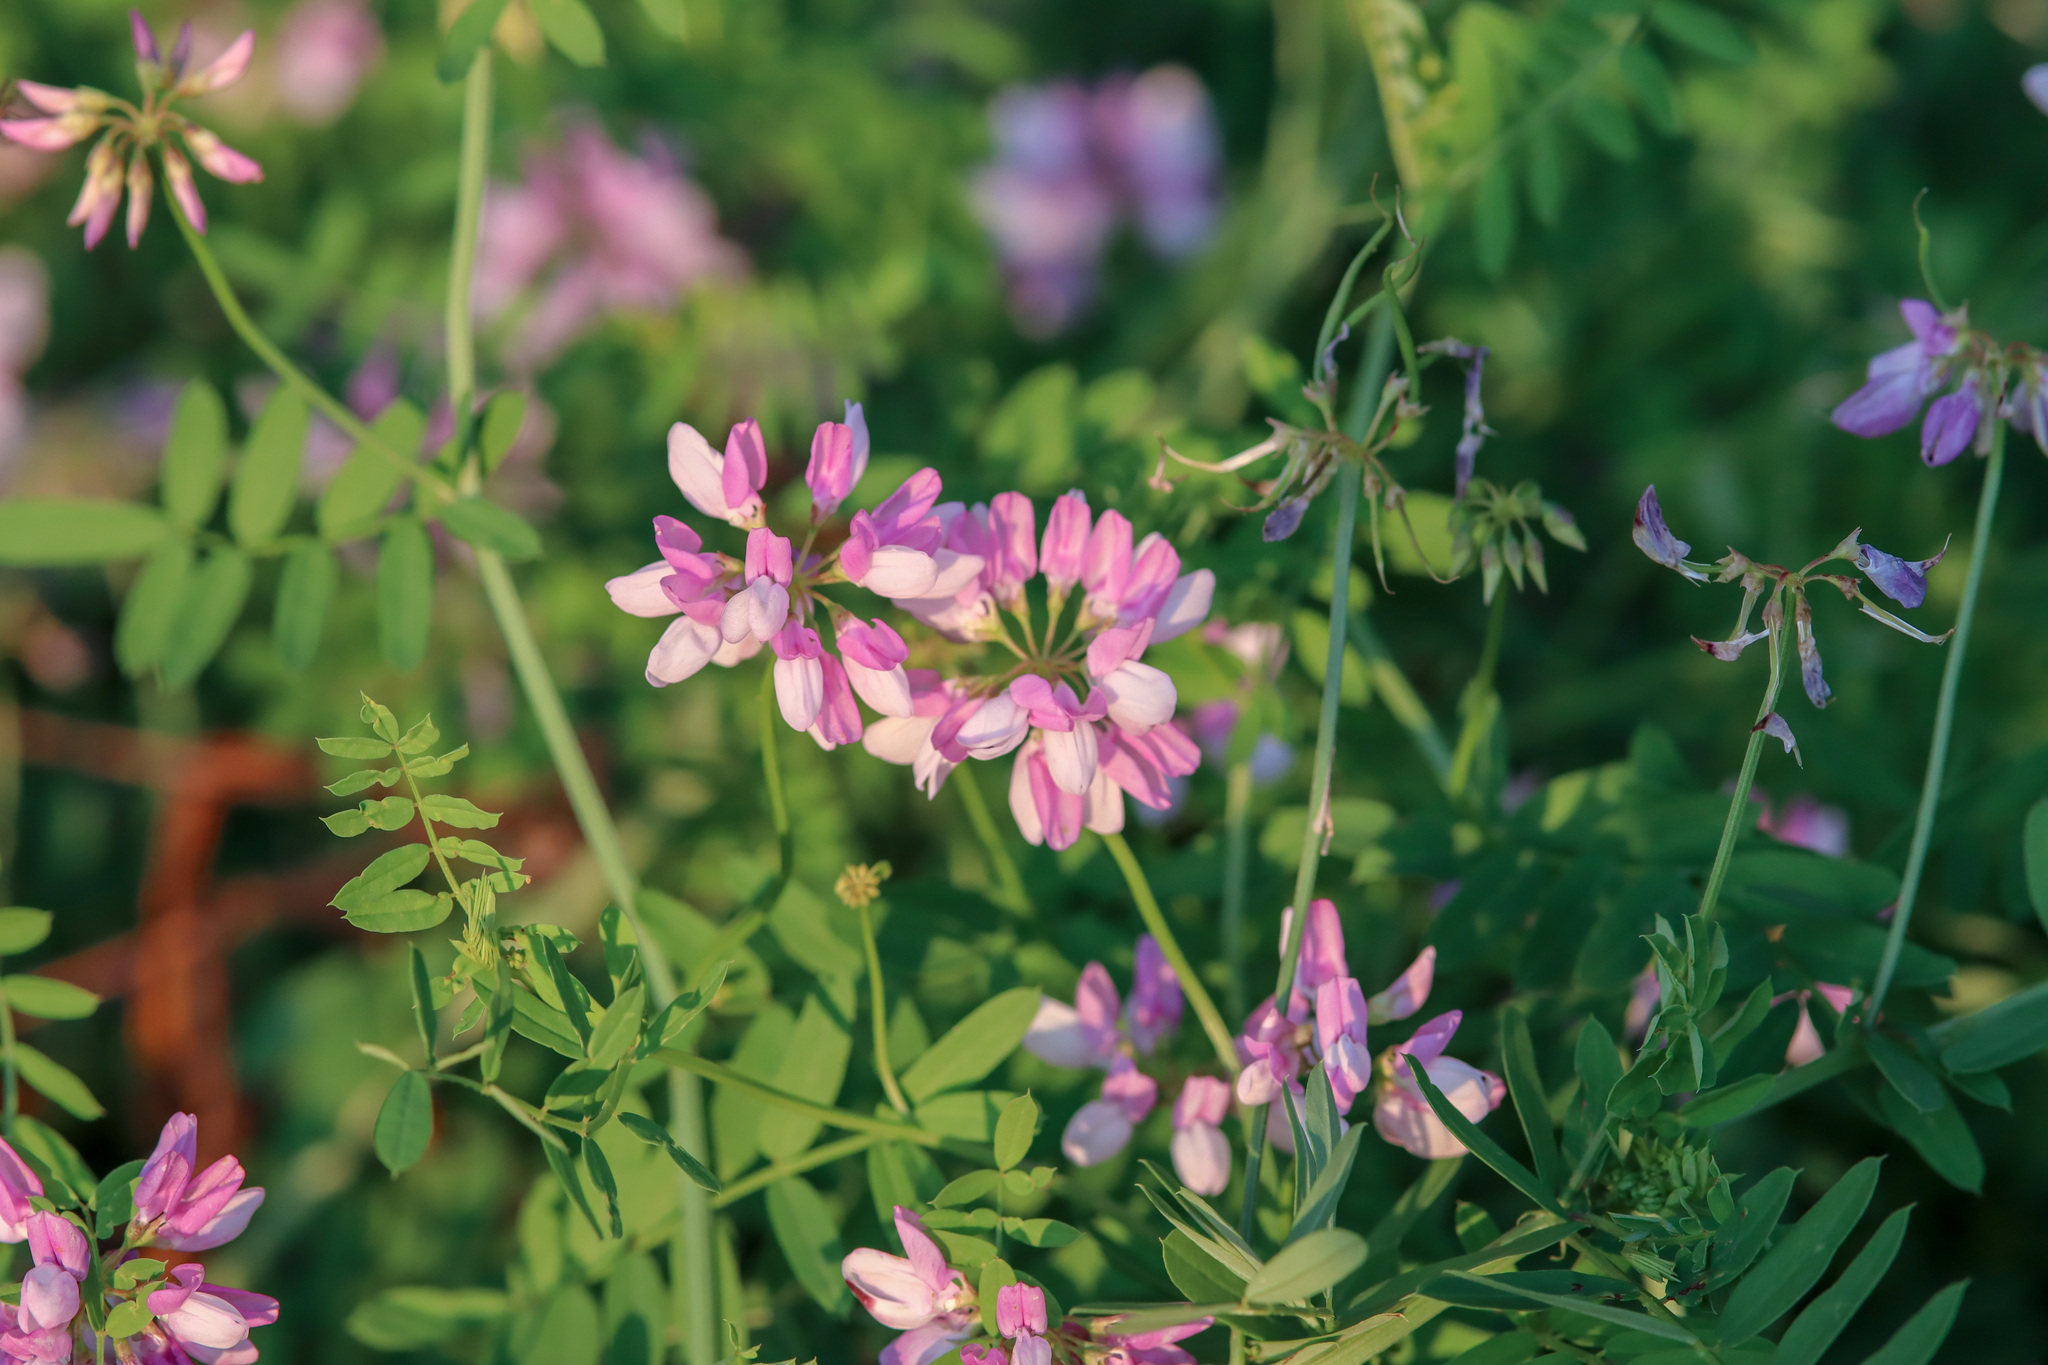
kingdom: Plantae
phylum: Tracheophyta
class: Magnoliopsida
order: Fabales
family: Fabaceae
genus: Coronilla
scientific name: Coronilla varia
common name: Crownvetch
